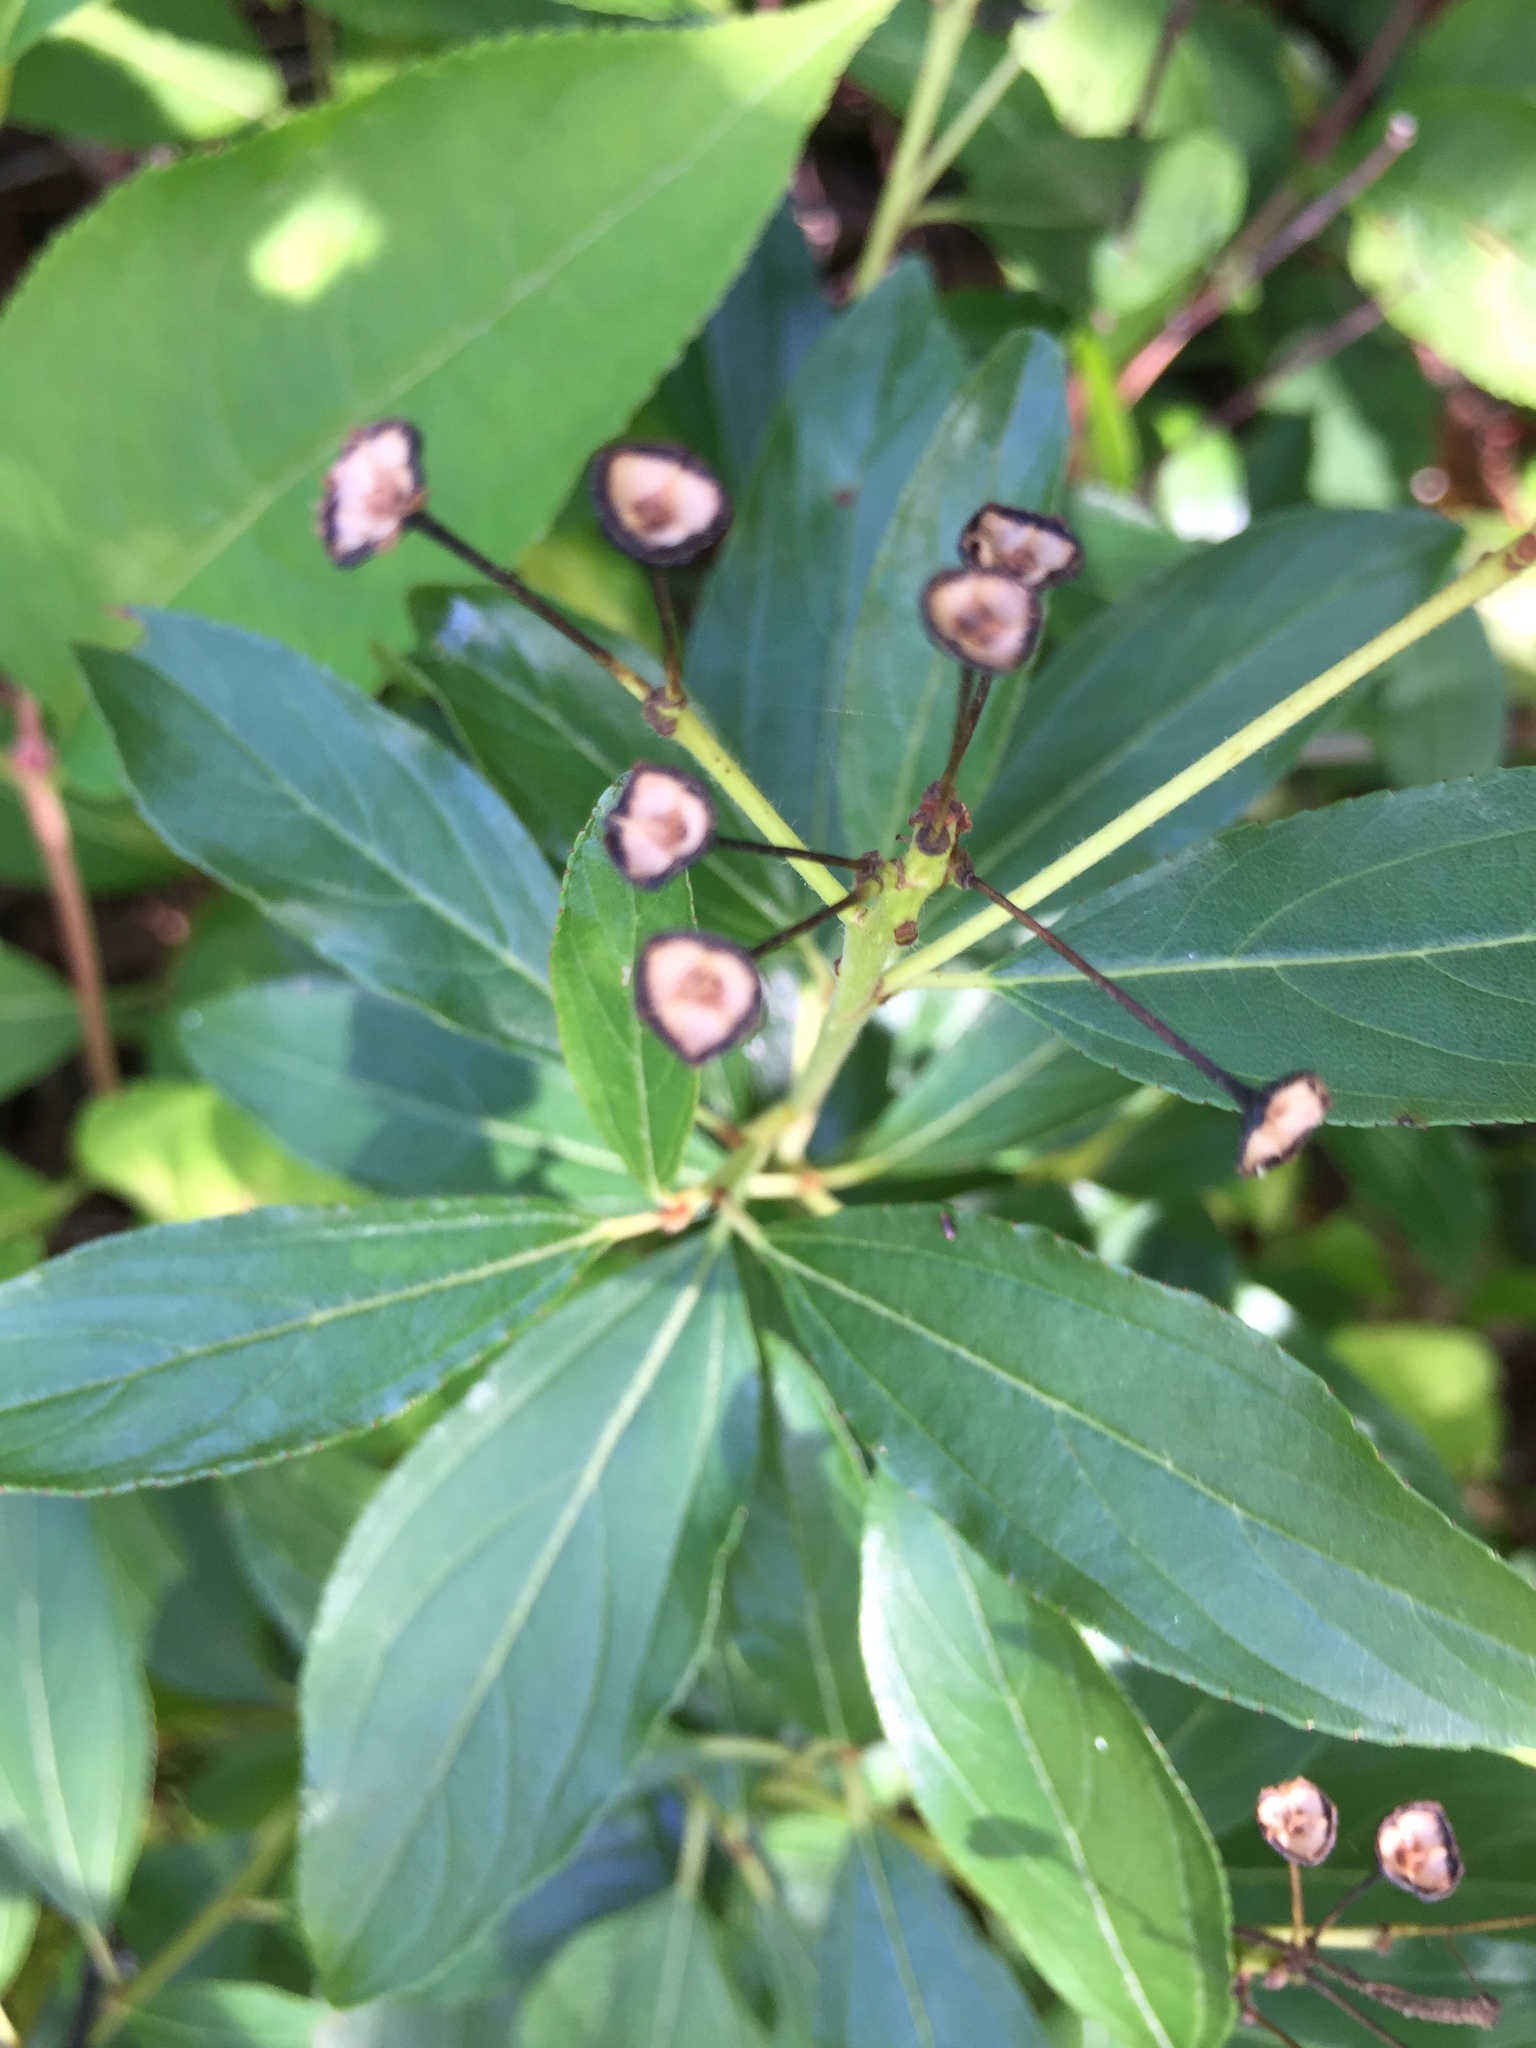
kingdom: Plantae
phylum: Tracheophyta
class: Magnoliopsida
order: Rosales
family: Rhamnaceae
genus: Ceanothus
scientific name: Ceanothus herbaceus
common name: Inland ceanothus
